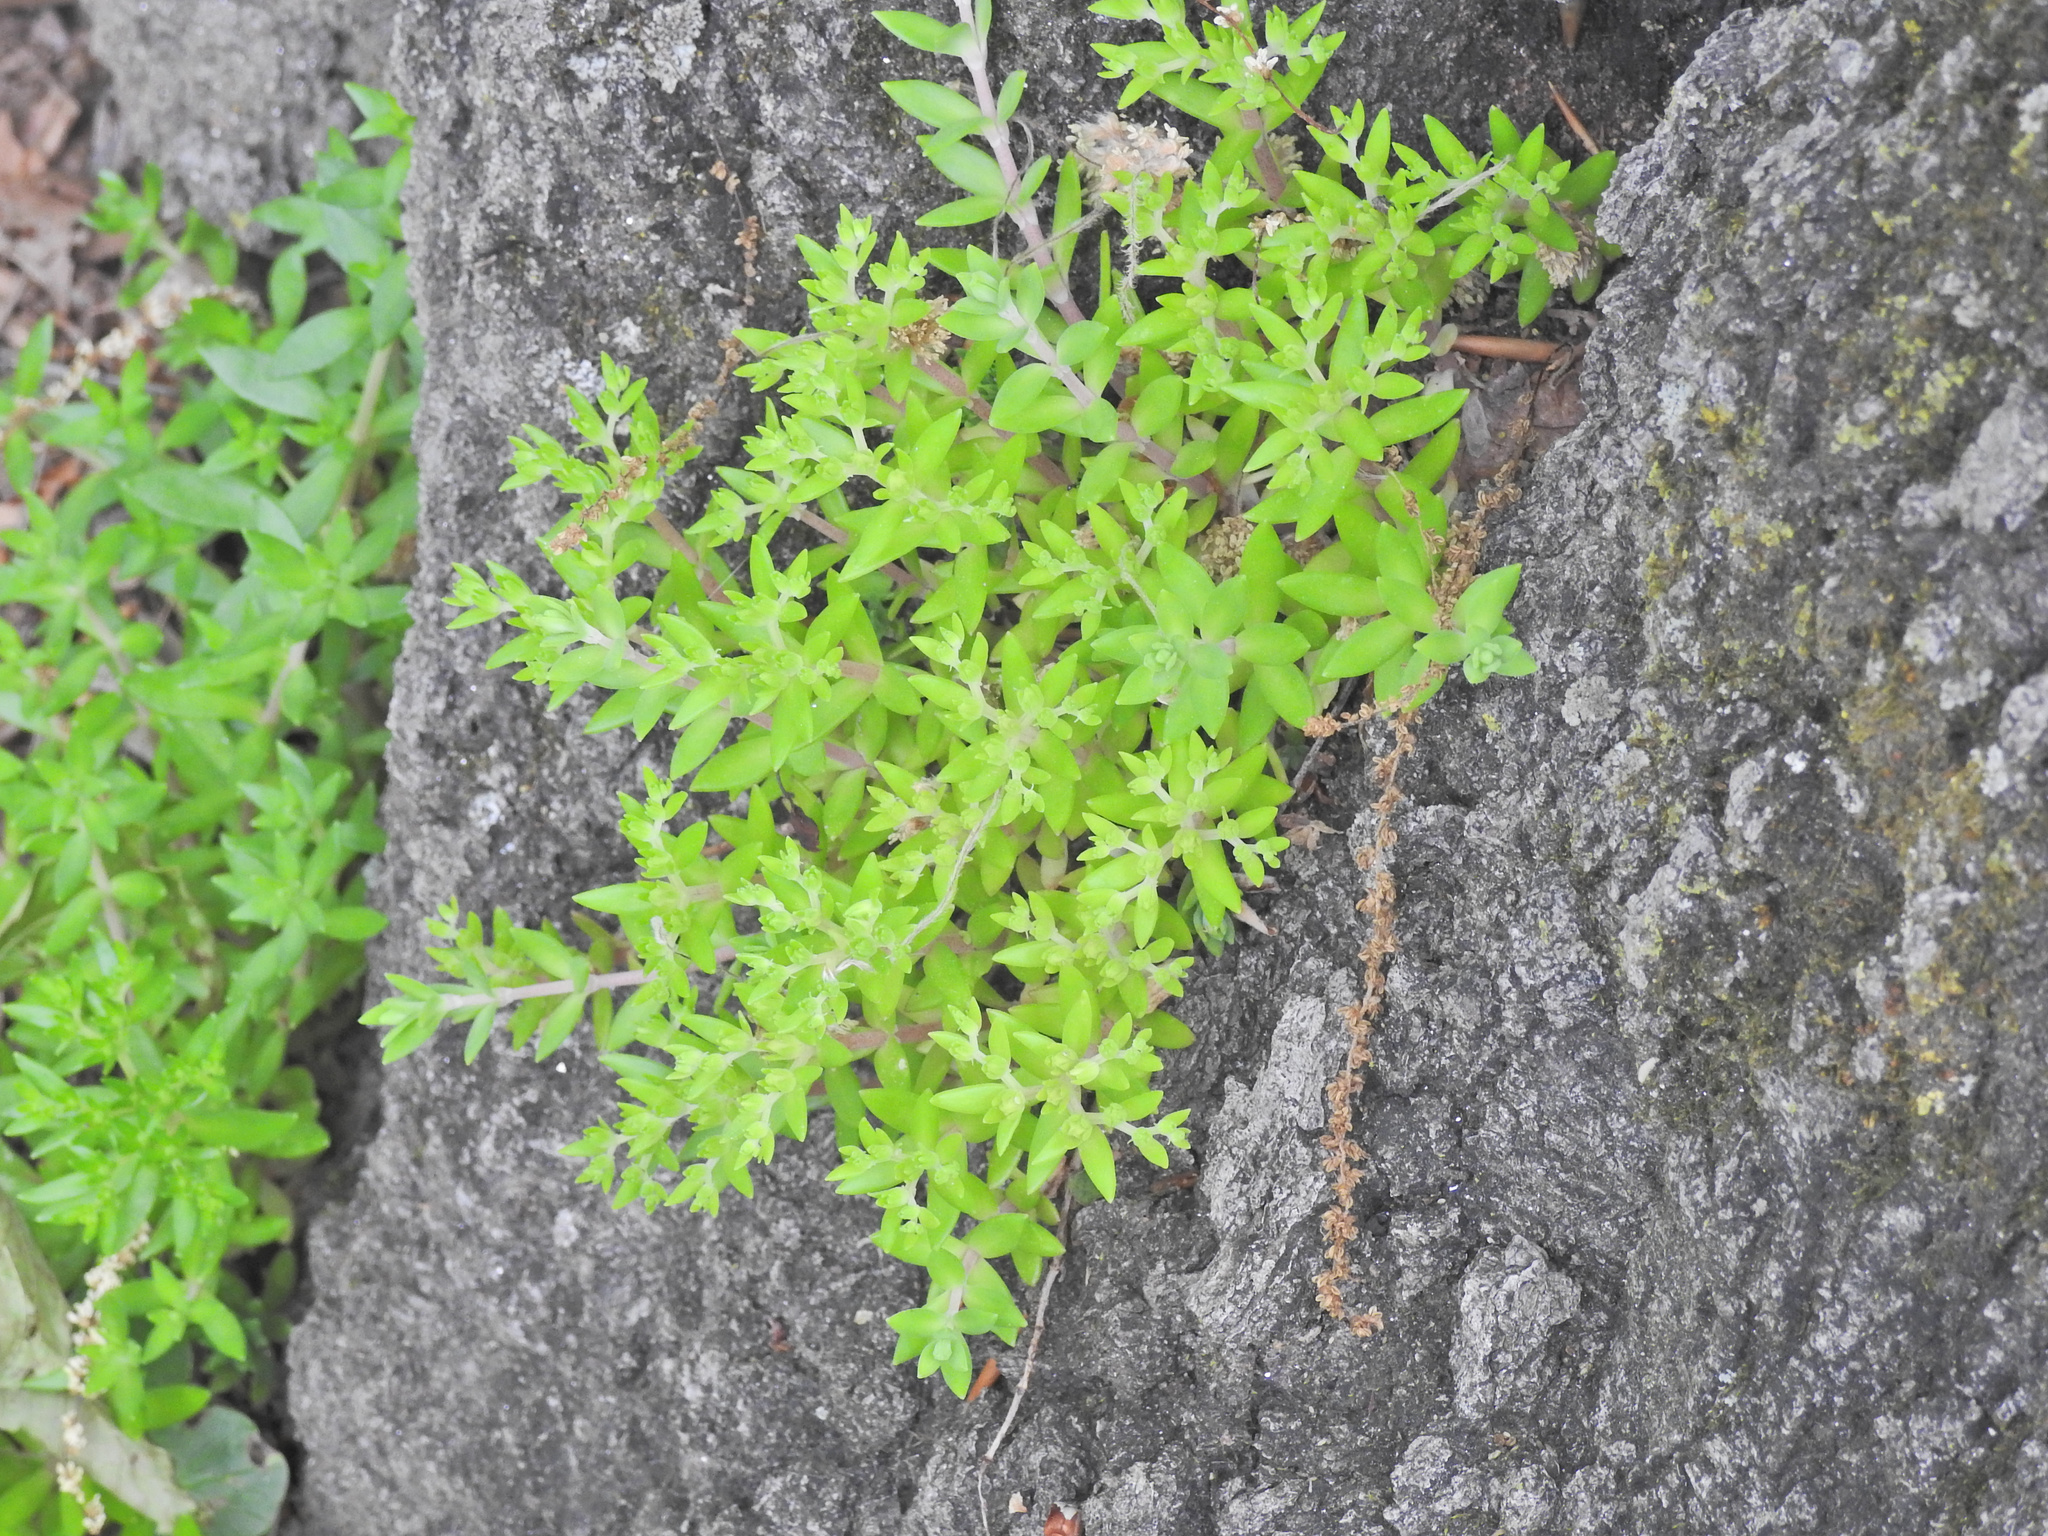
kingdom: Plantae
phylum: Tracheophyta
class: Magnoliopsida
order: Saxifragales
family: Crassulaceae
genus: Sedum
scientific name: Sedum sarmentosum
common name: Stringy stonecrop
